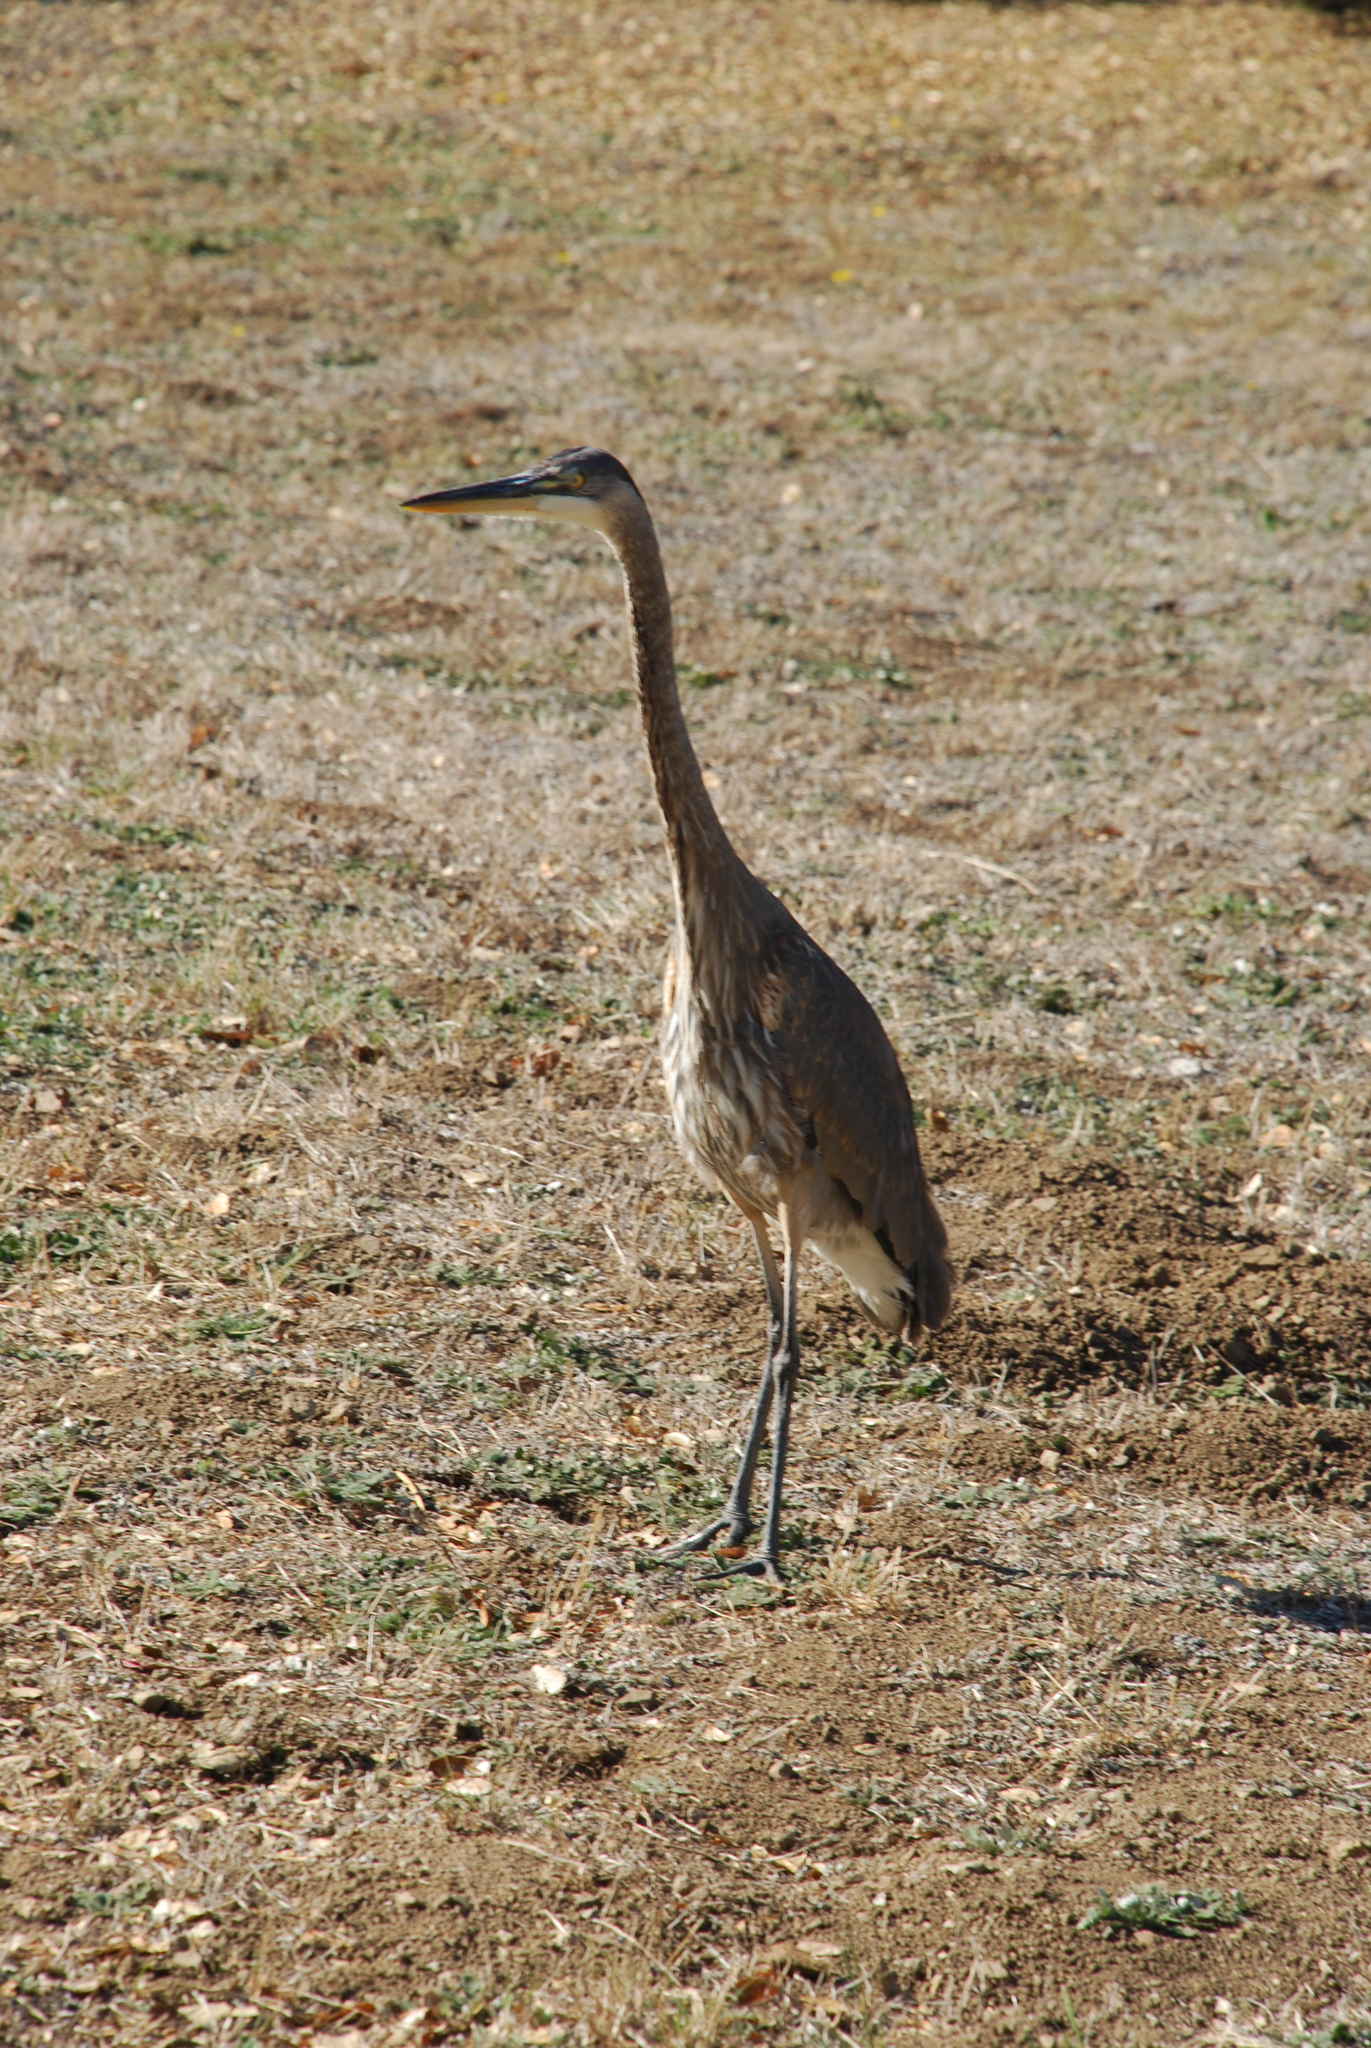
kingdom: Animalia
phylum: Chordata
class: Aves
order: Pelecaniformes
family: Ardeidae
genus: Ardea
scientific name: Ardea herodias
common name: Great blue heron
